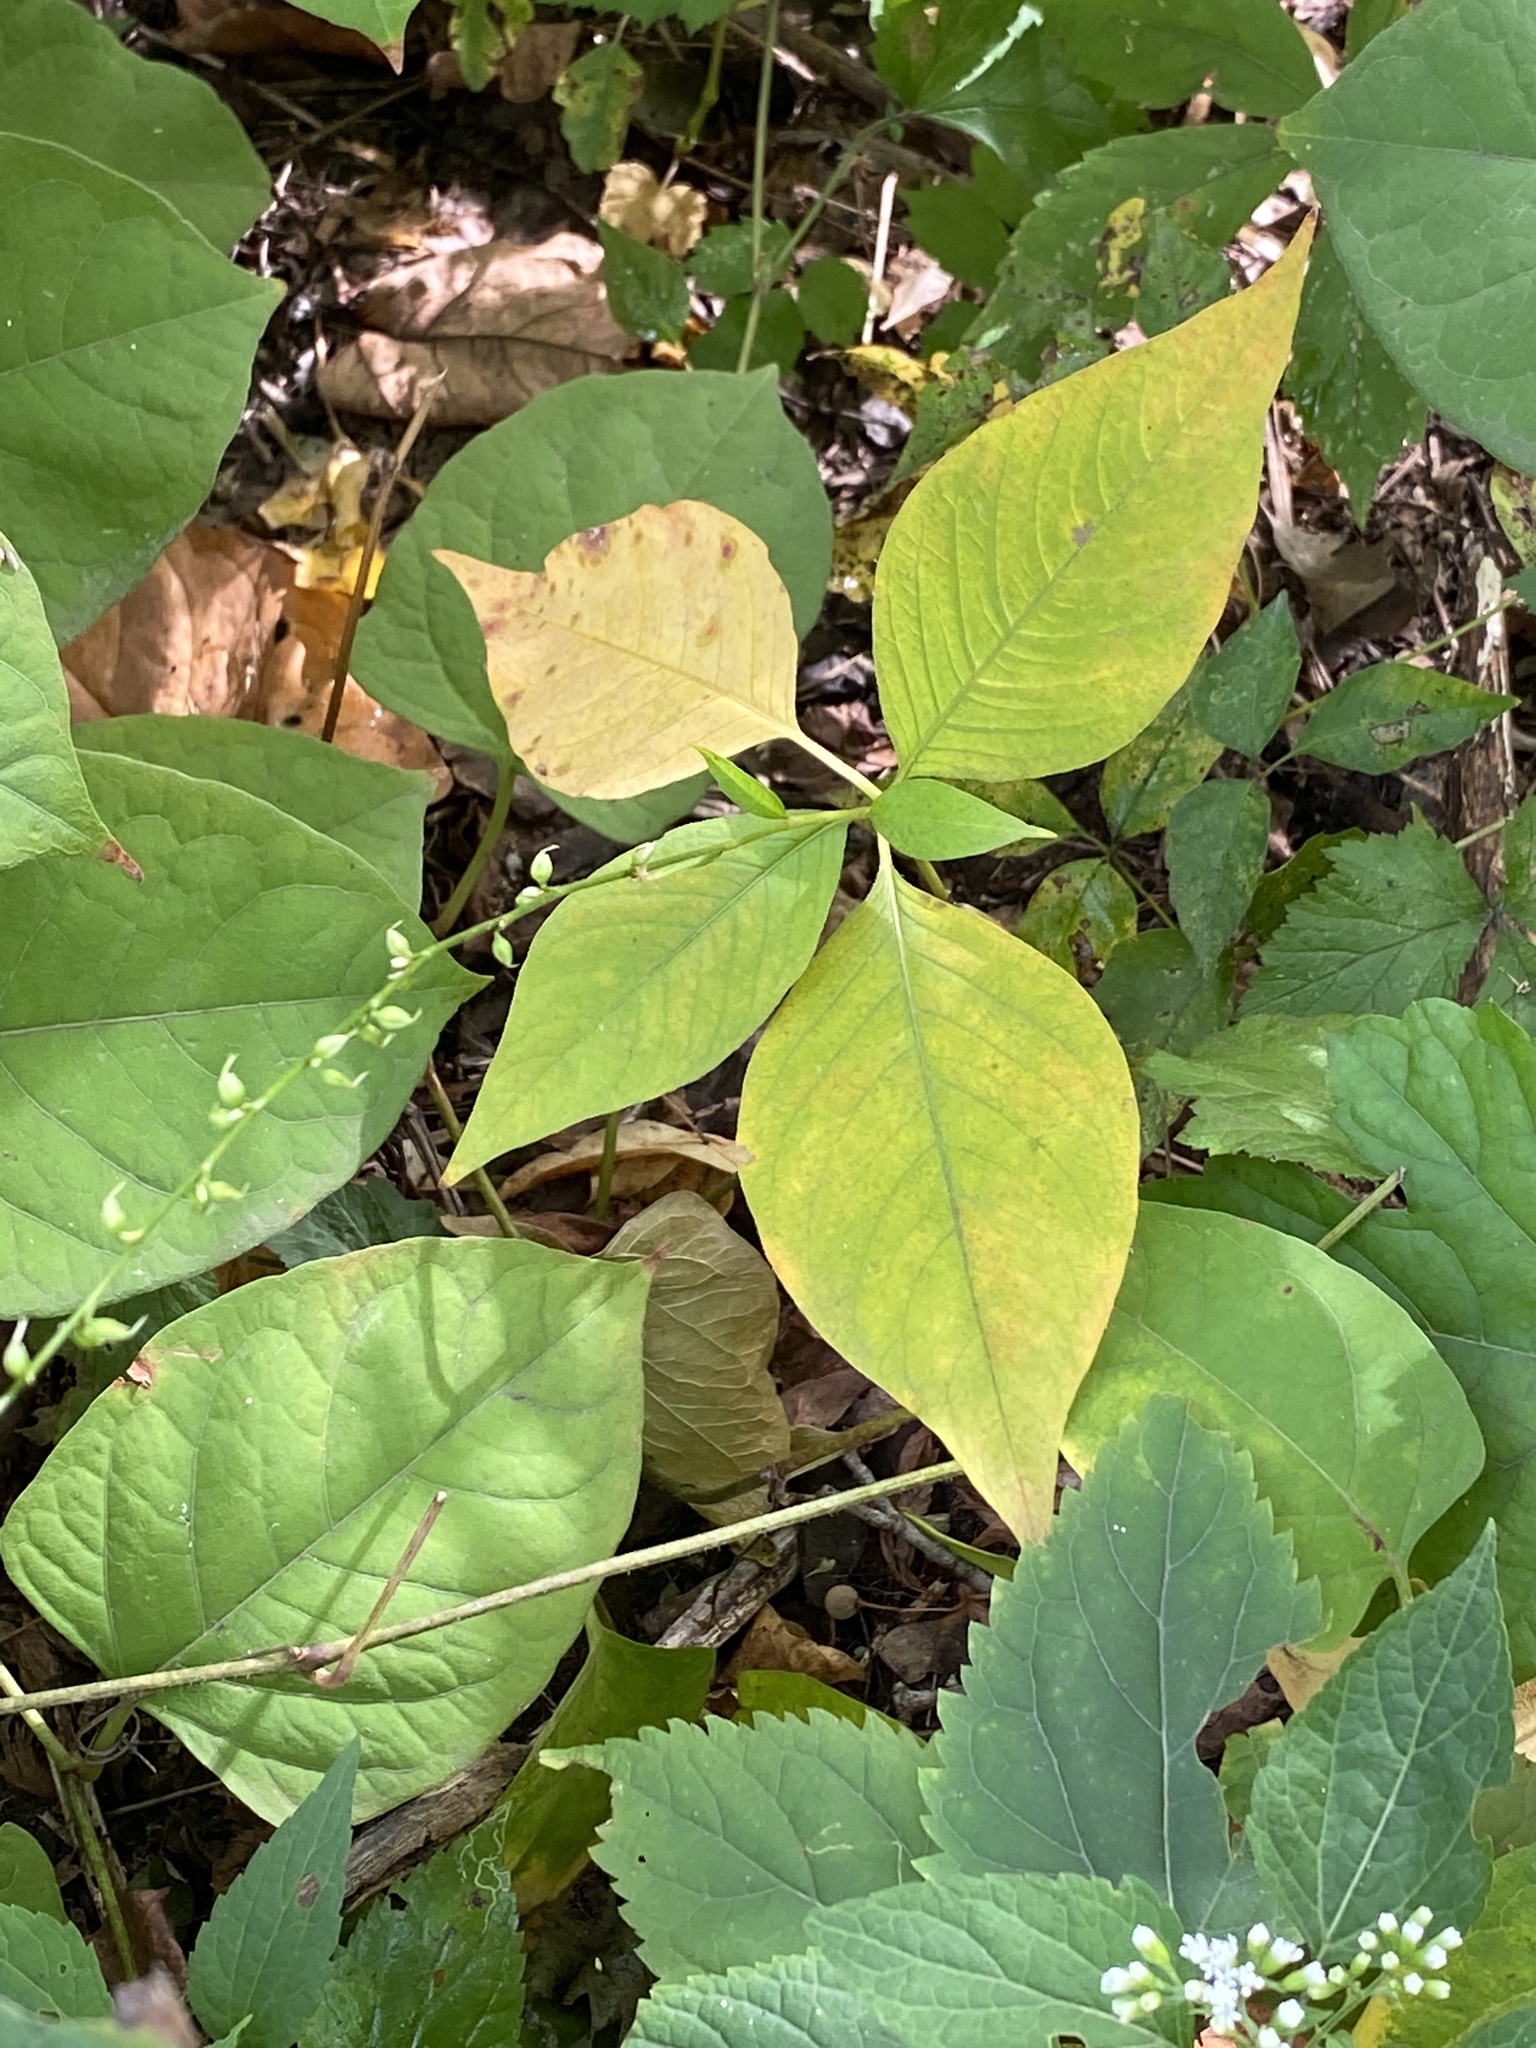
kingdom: Plantae
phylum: Tracheophyta
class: Magnoliopsida
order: Caryophyllales
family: Polygonaceae
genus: Persicaria
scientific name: Persicaria virginiana
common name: Jumpseed
